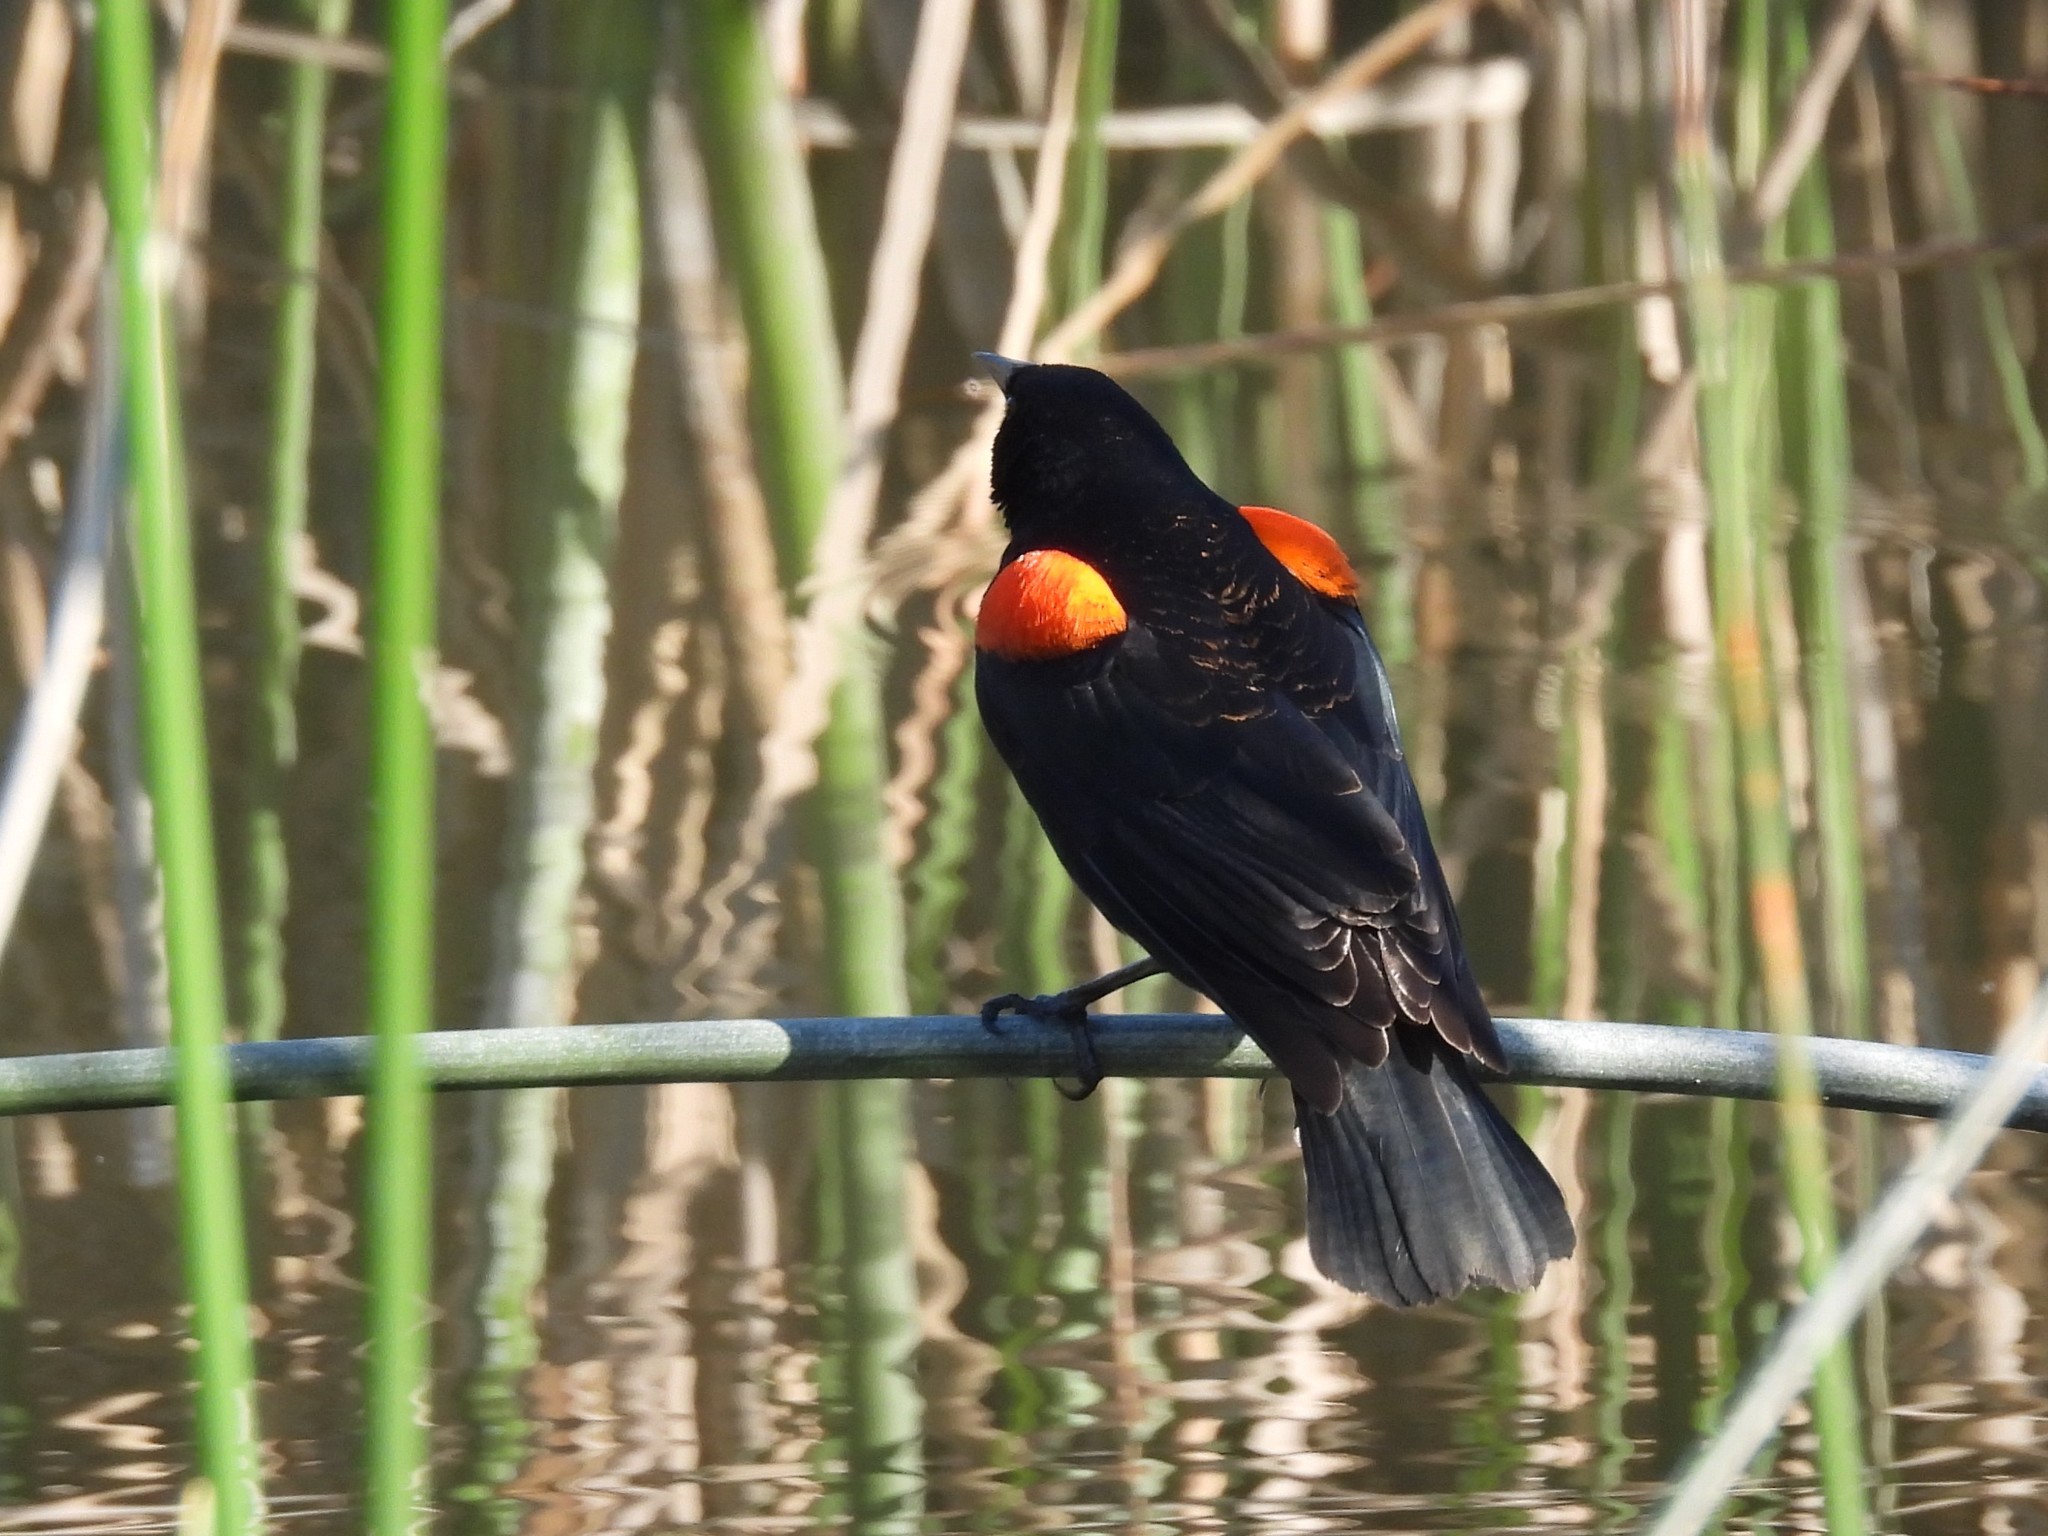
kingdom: Animalia
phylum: Chordata
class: Aves
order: Passeriformes
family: Icteridae
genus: Agelaius
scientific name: Agelaius phoeniceus
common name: Red-winged blackbird
